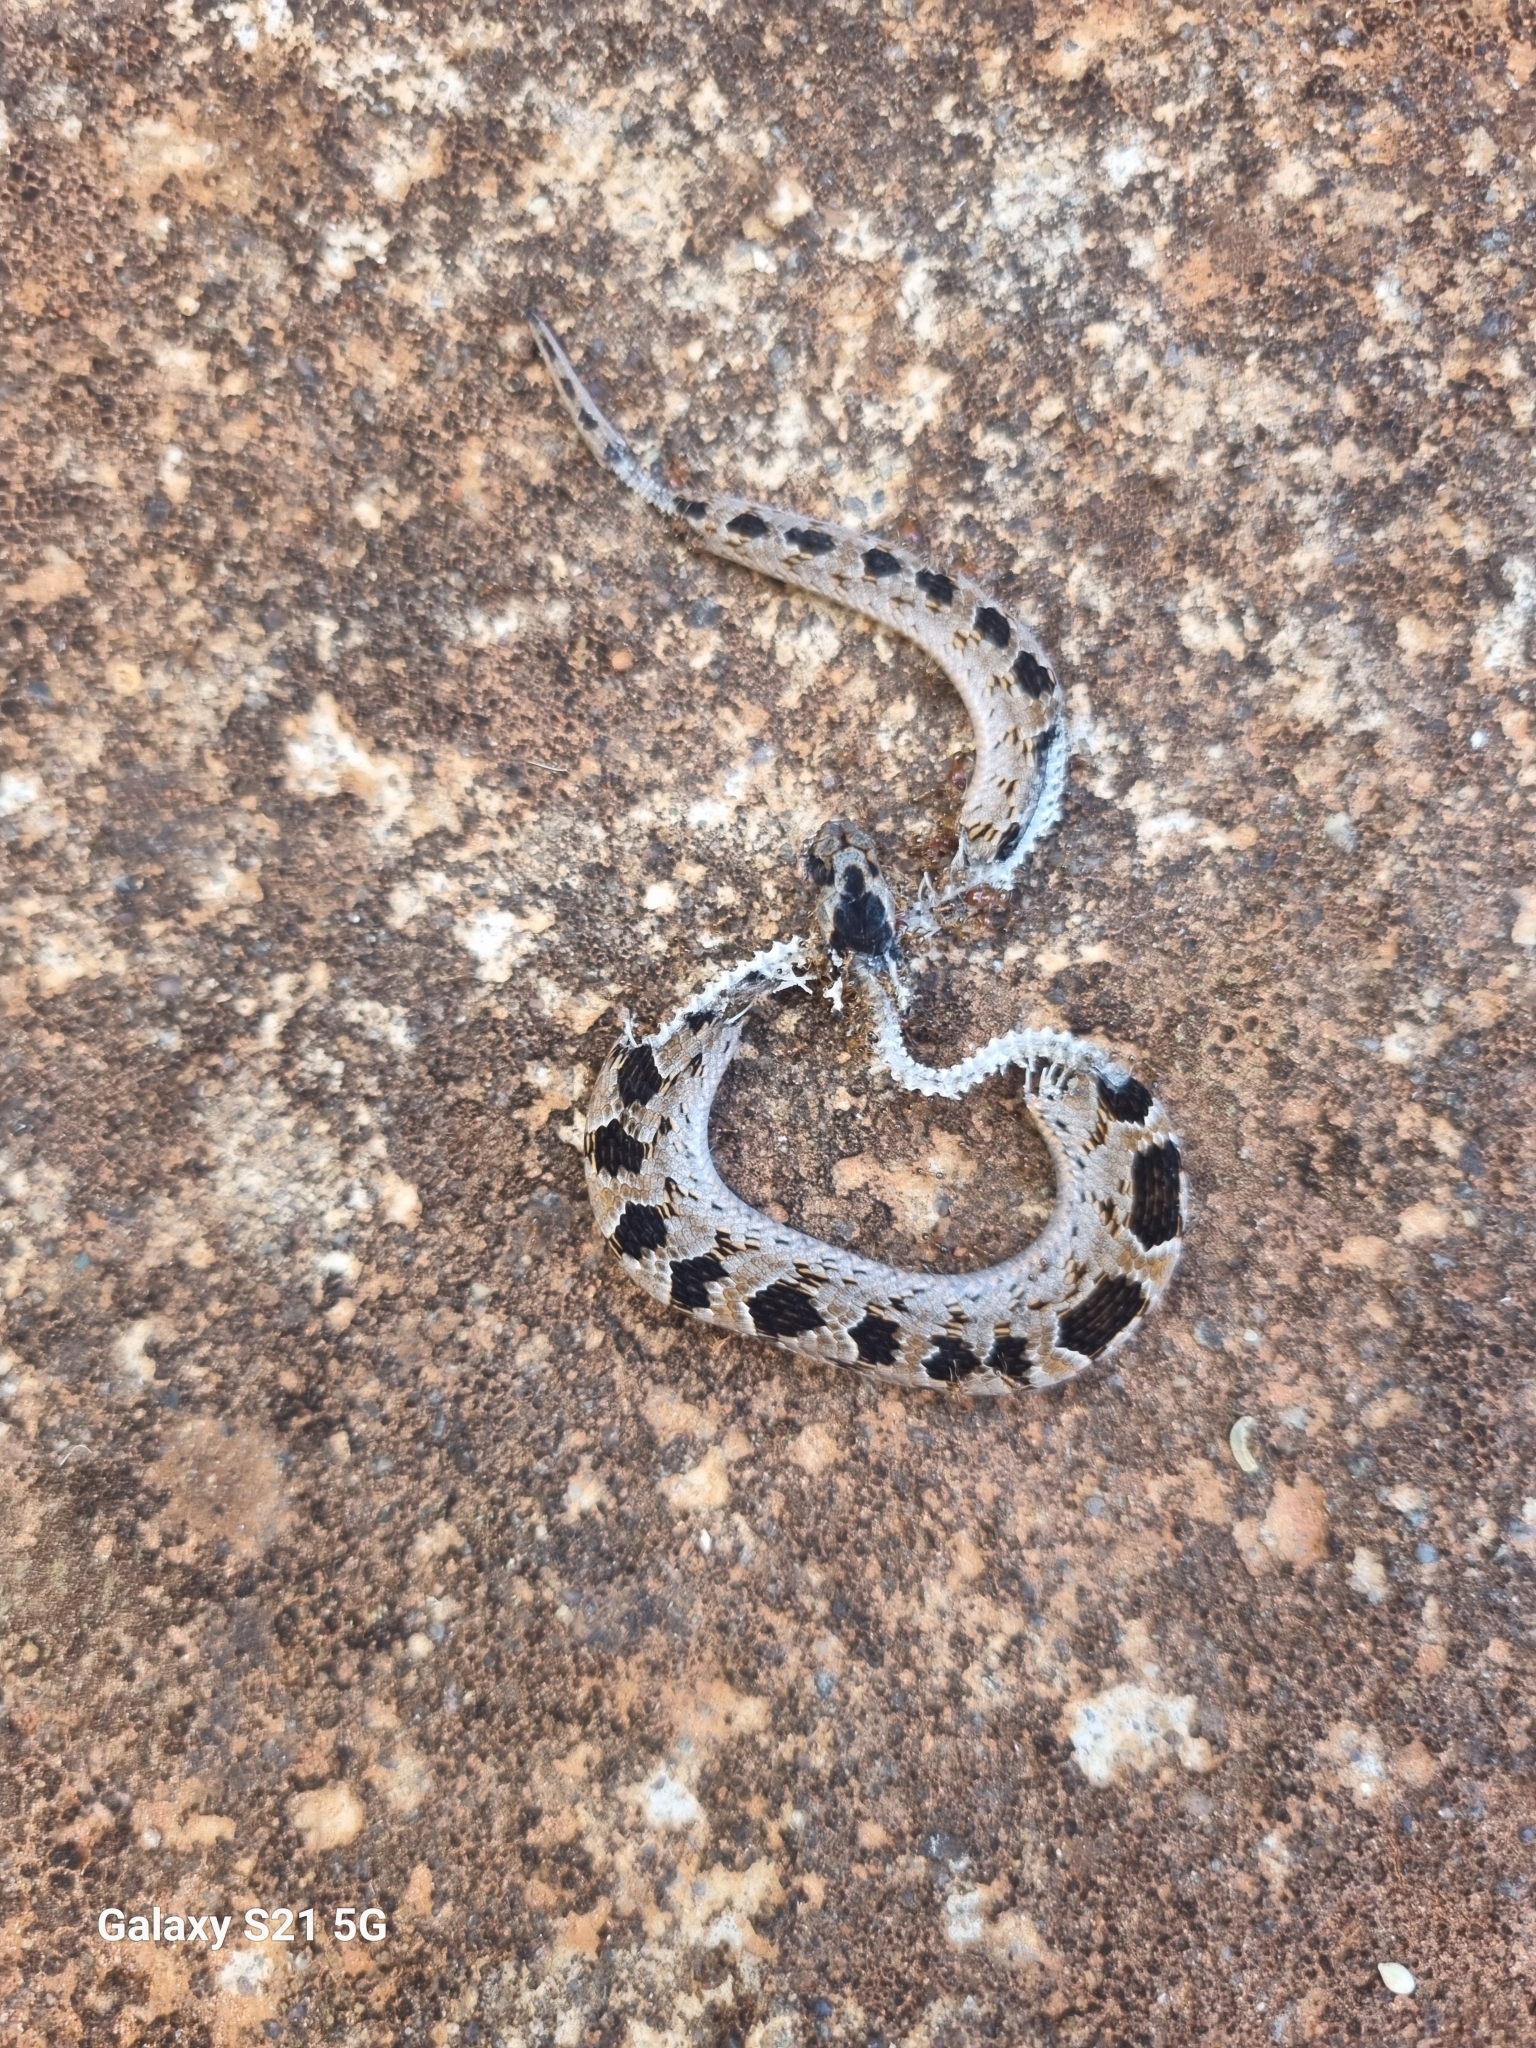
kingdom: Animalia
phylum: Chordata
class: Squamata
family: Viperidae
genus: Causus
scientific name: Causus rhombeatus
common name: Common night adder
